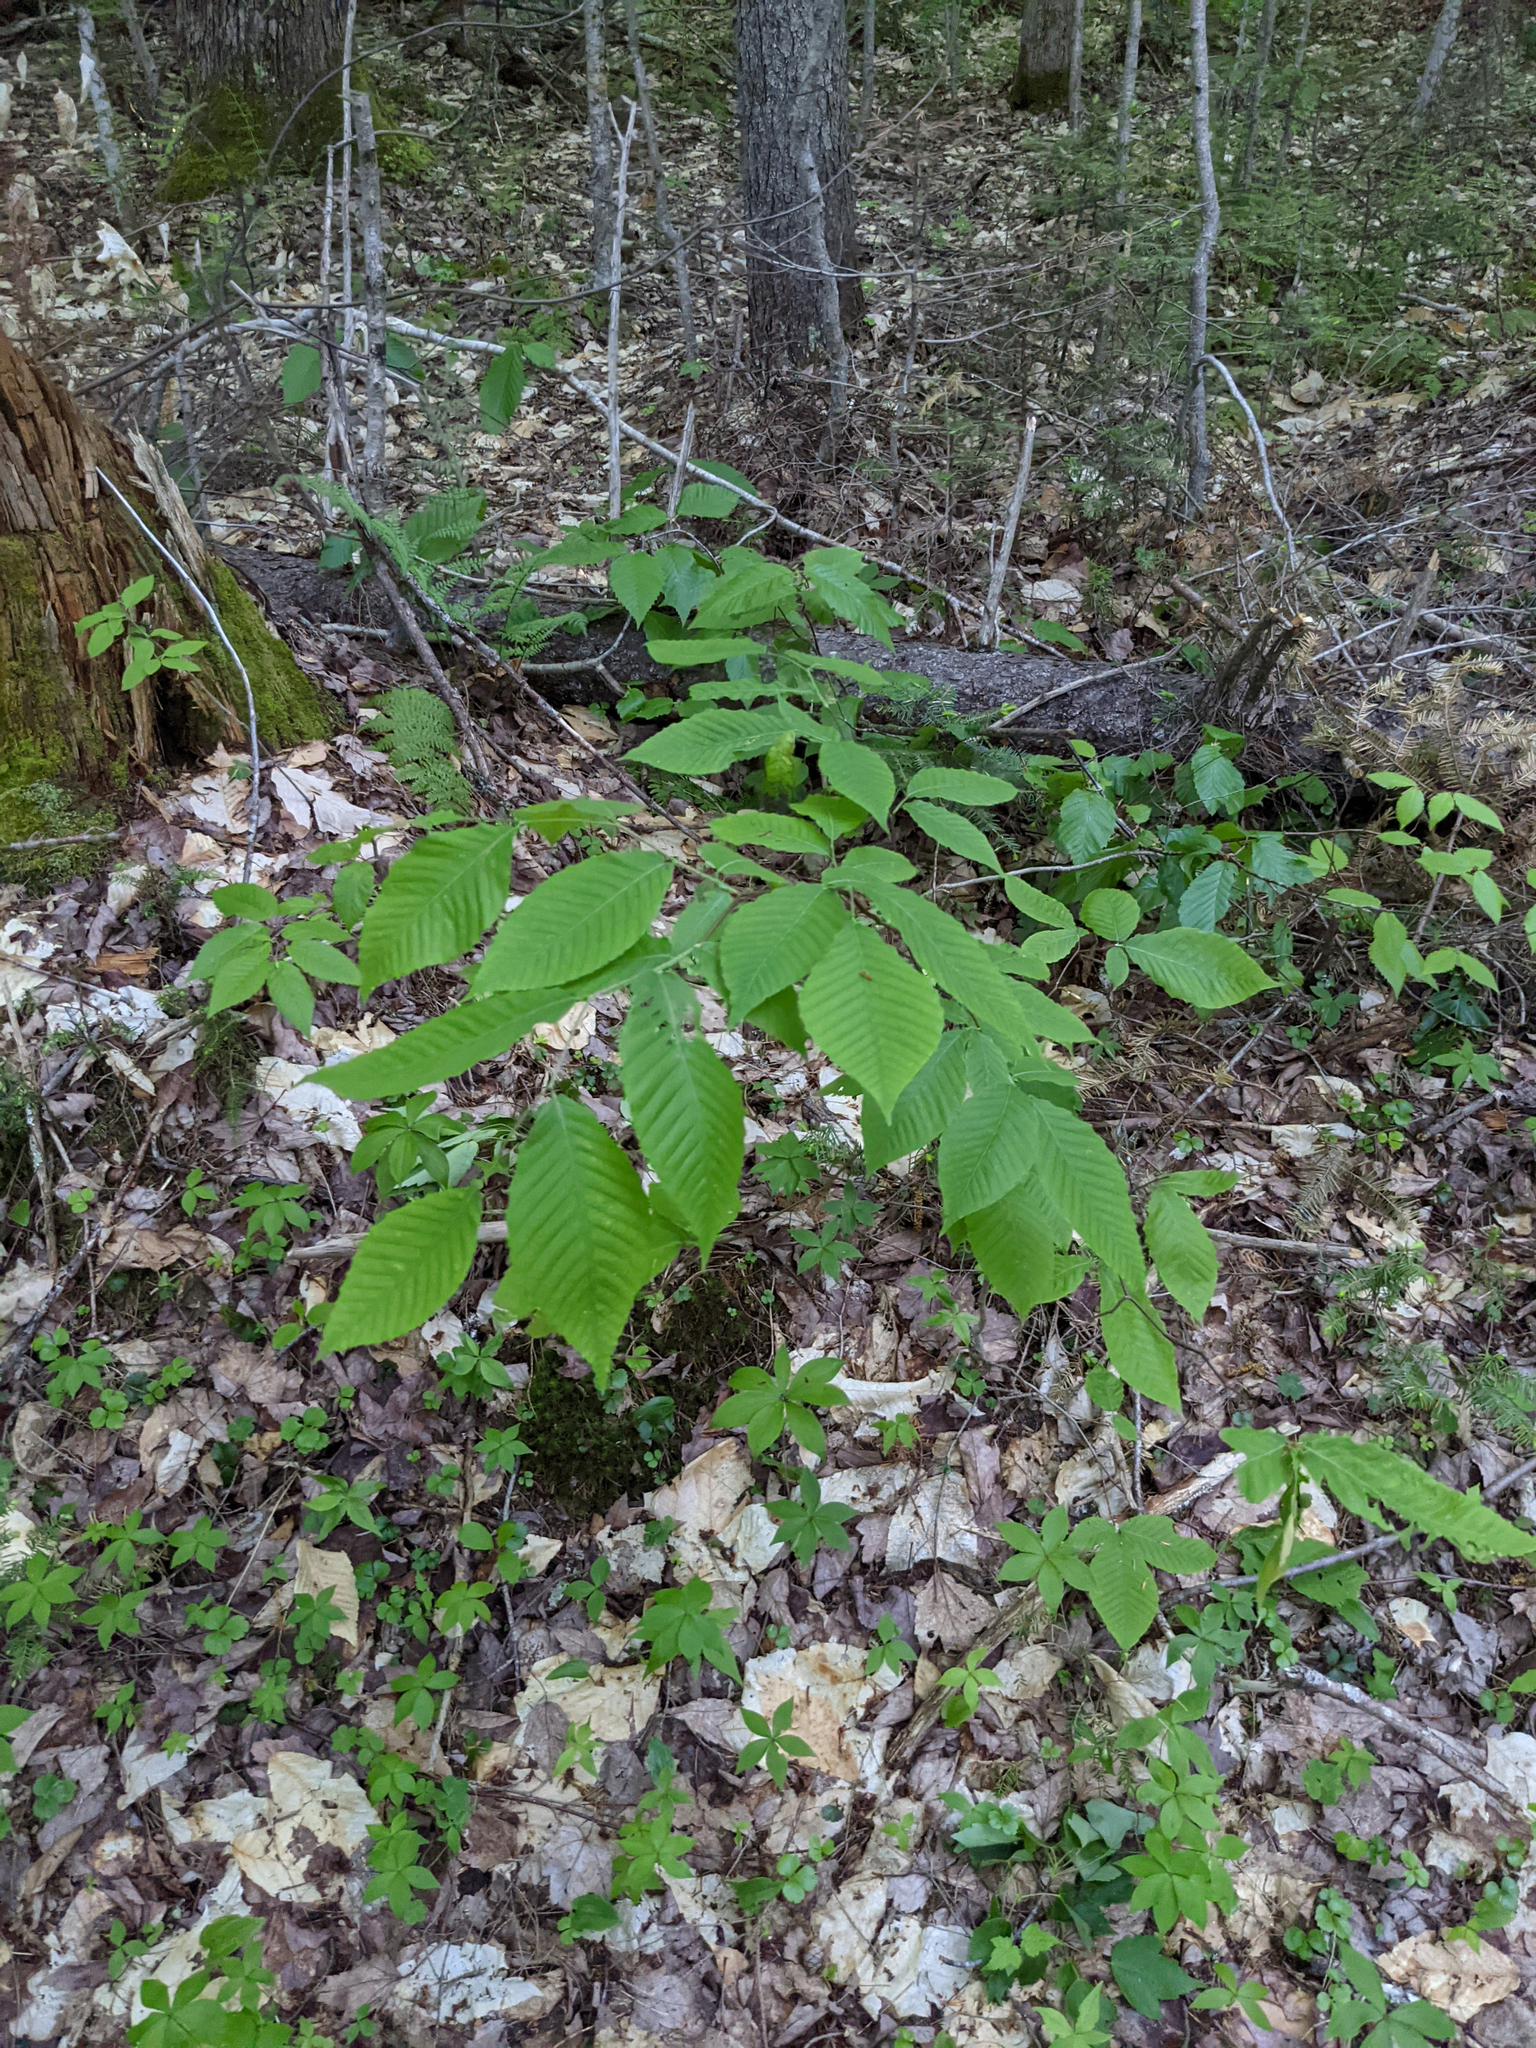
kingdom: Plantae
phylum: Tracheophyta
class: Magnoliopsida
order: Fagales
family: Fagaceae
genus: Fagus
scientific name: Fagus grandifolia
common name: American beech
